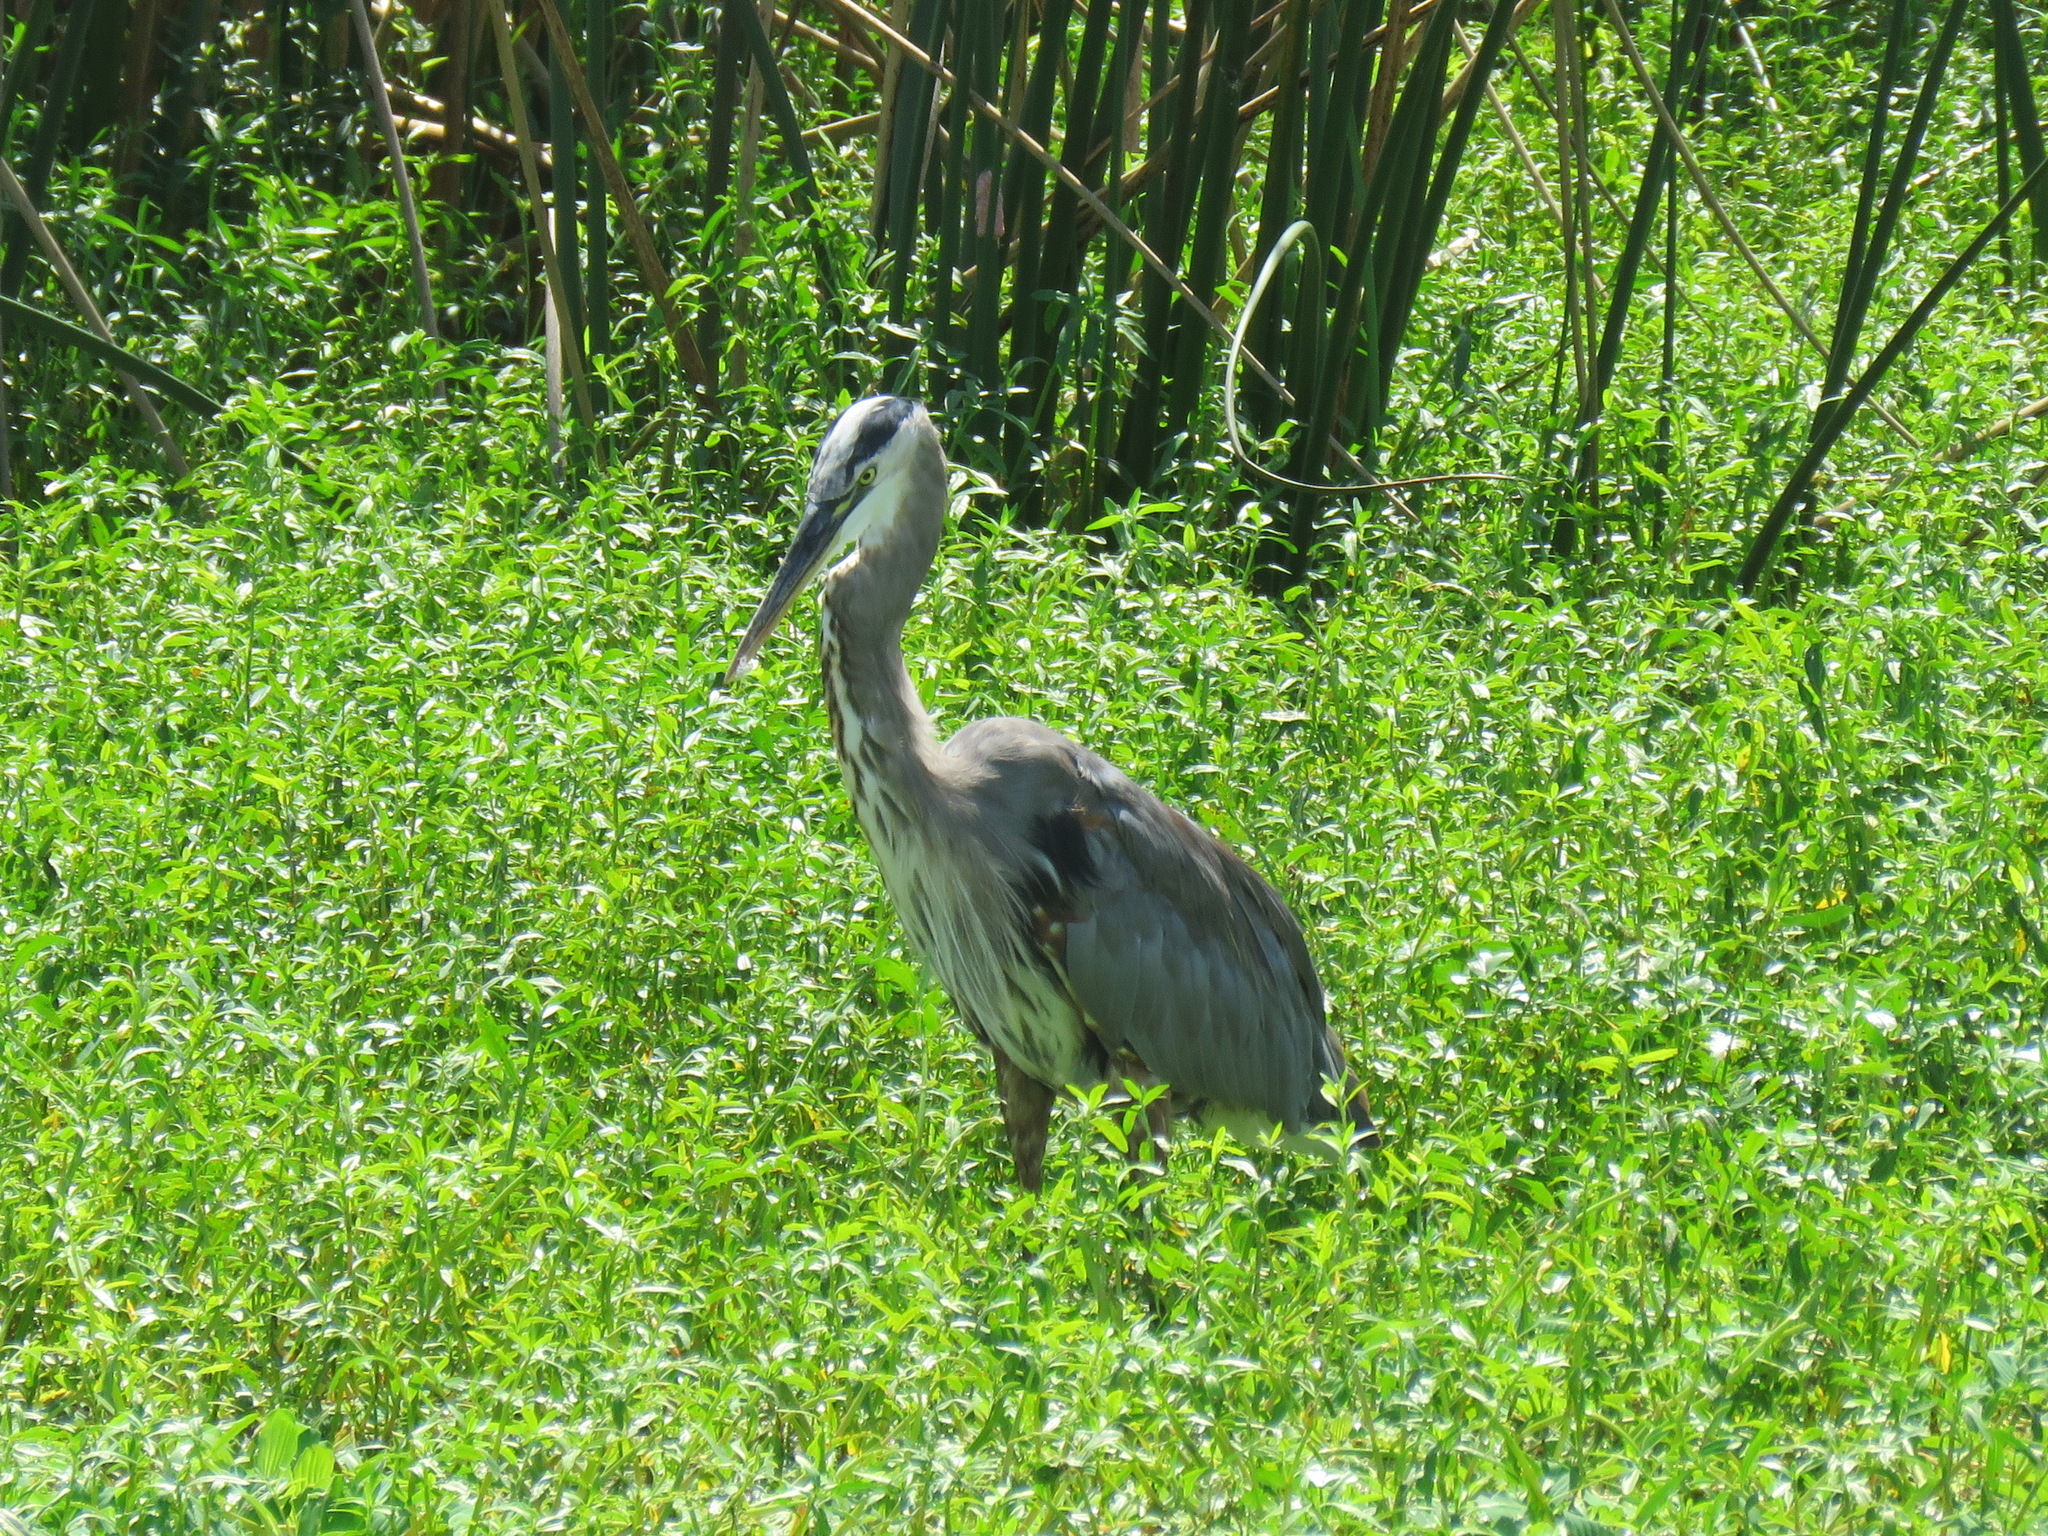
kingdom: Animalia
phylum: Chordata
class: Aves
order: Pelecaniformes
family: Ardeidae
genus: Ardea
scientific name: Ardea herodias
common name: Great blue heron
